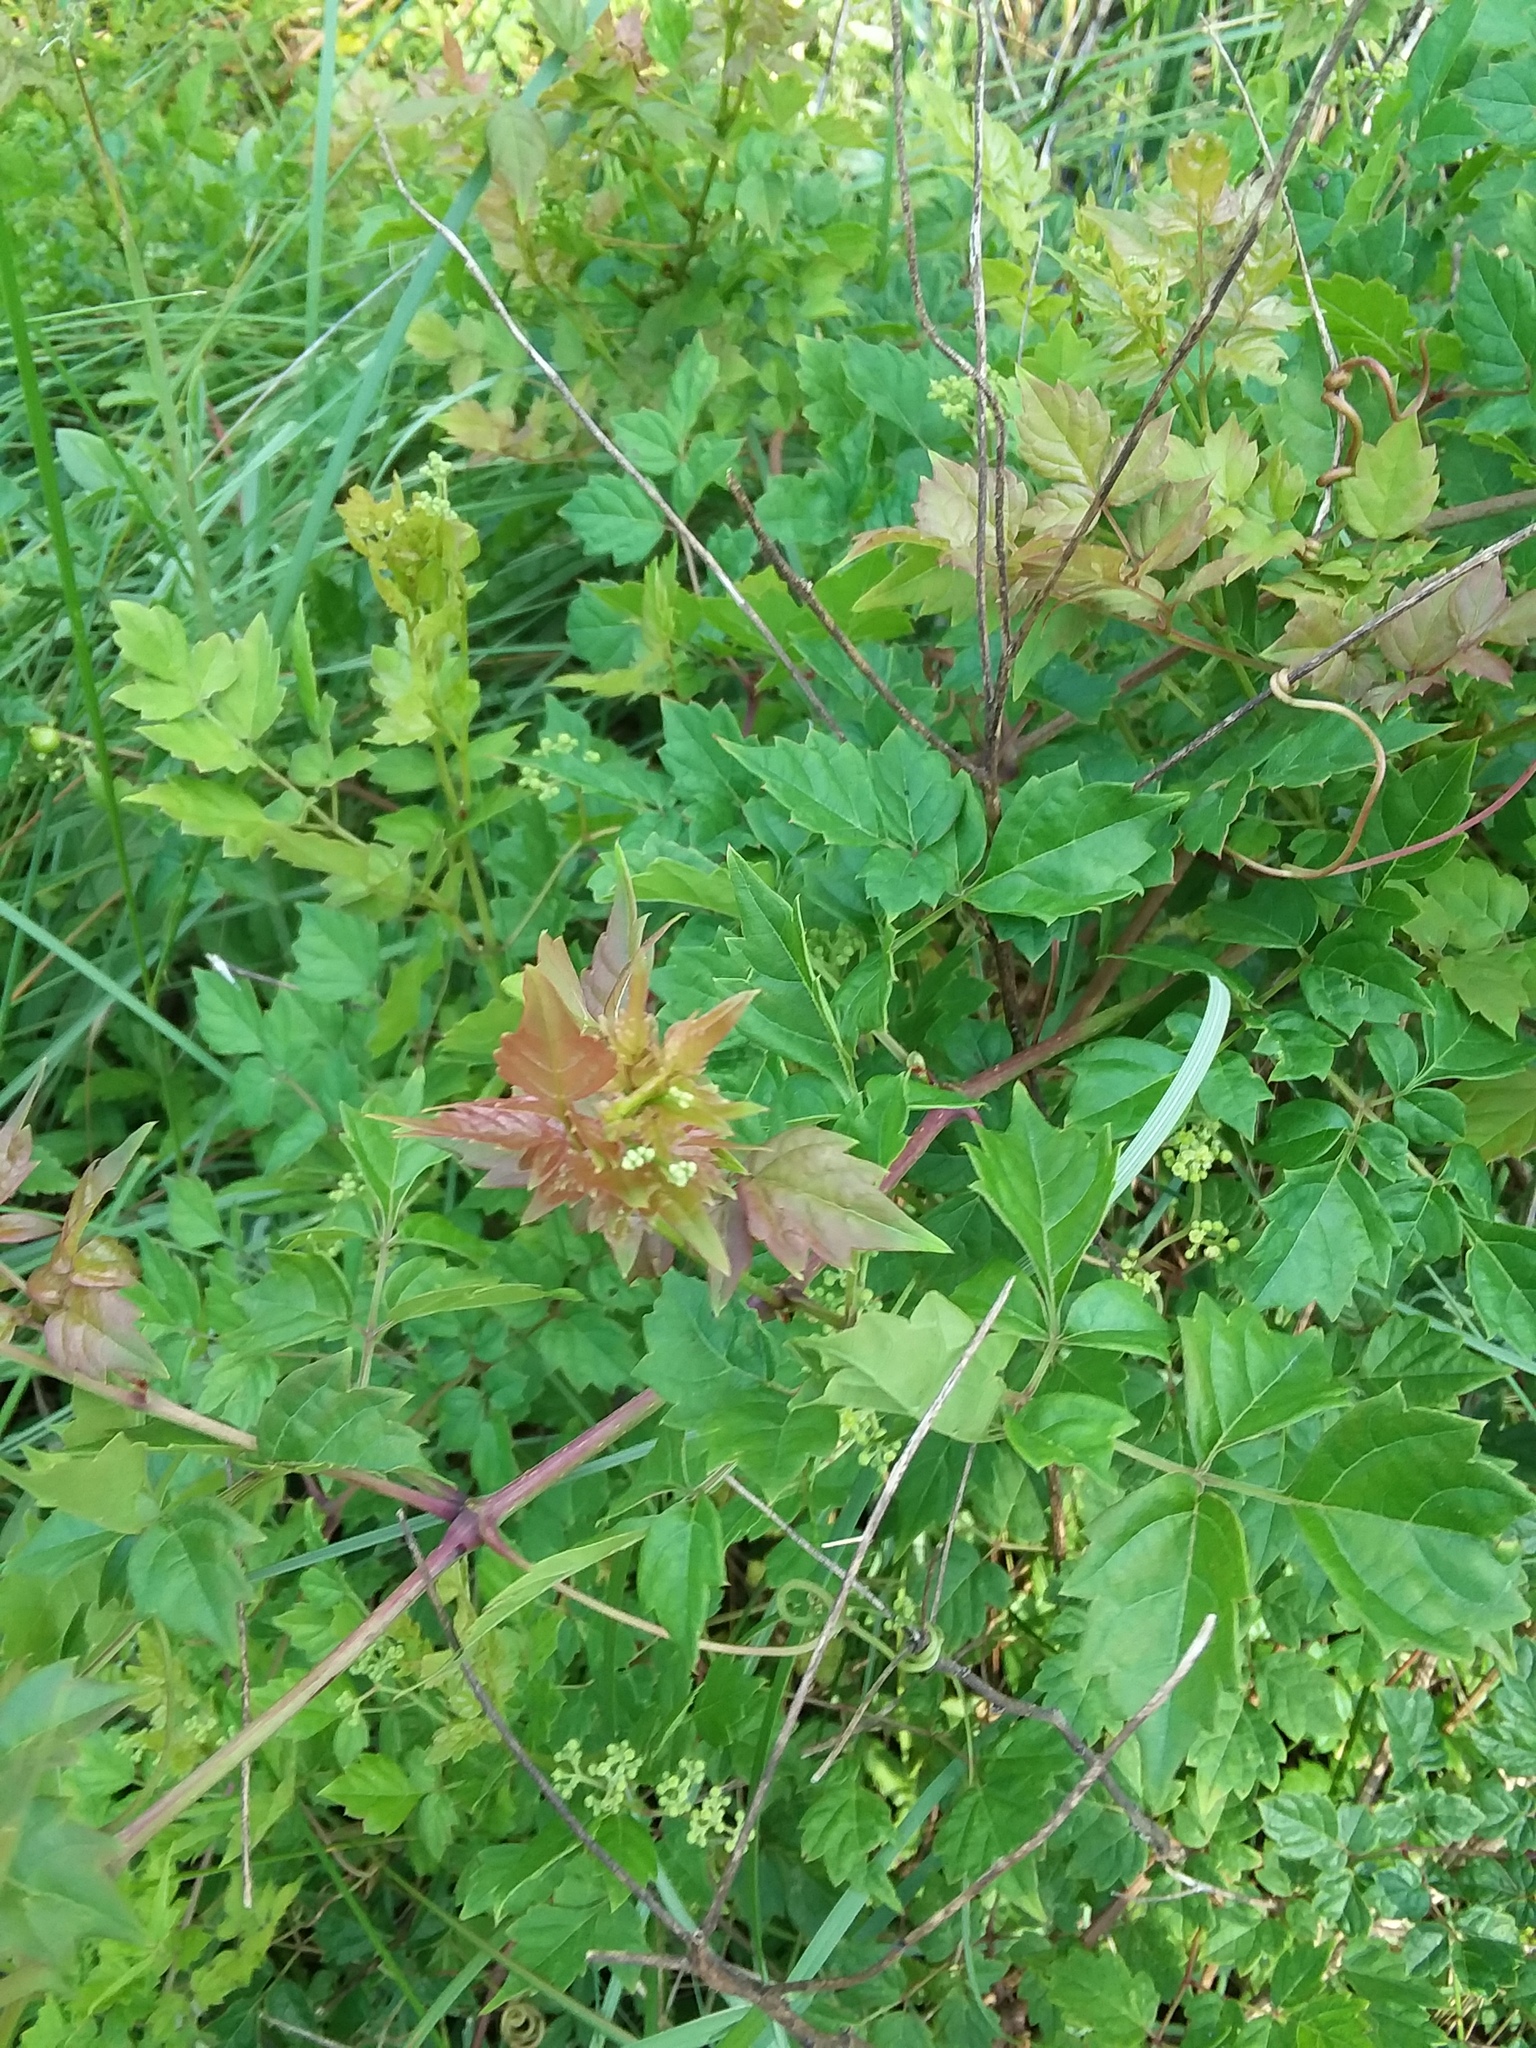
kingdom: Plantae
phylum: Tracheophyta
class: Magnoliopsida
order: Vitales
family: Vitaceae
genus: Nekemias
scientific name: Nekemias arborea
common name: Peppervine
